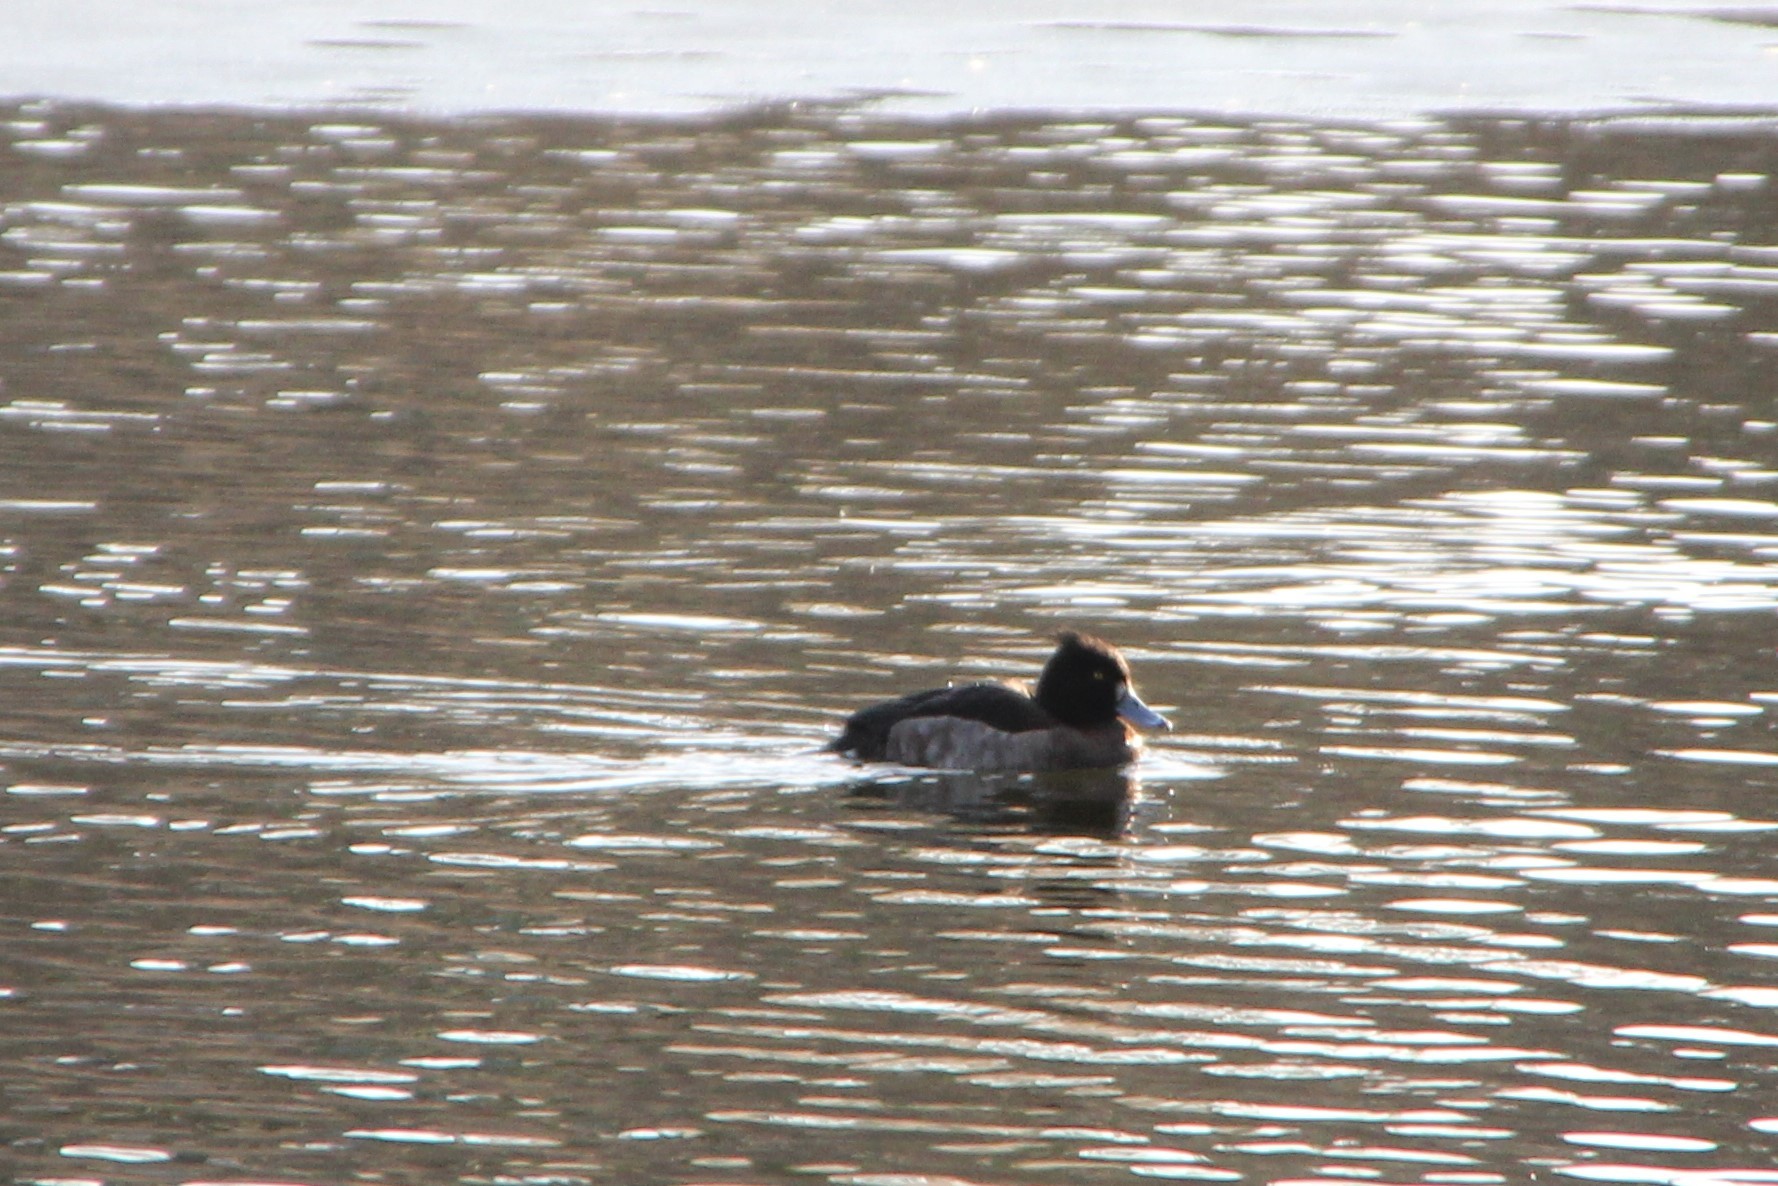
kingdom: Animalia
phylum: Chordata
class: Aves
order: Anseriformes
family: Anatidae
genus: Aythya
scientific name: Aythya fuligula
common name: Tufted duck
